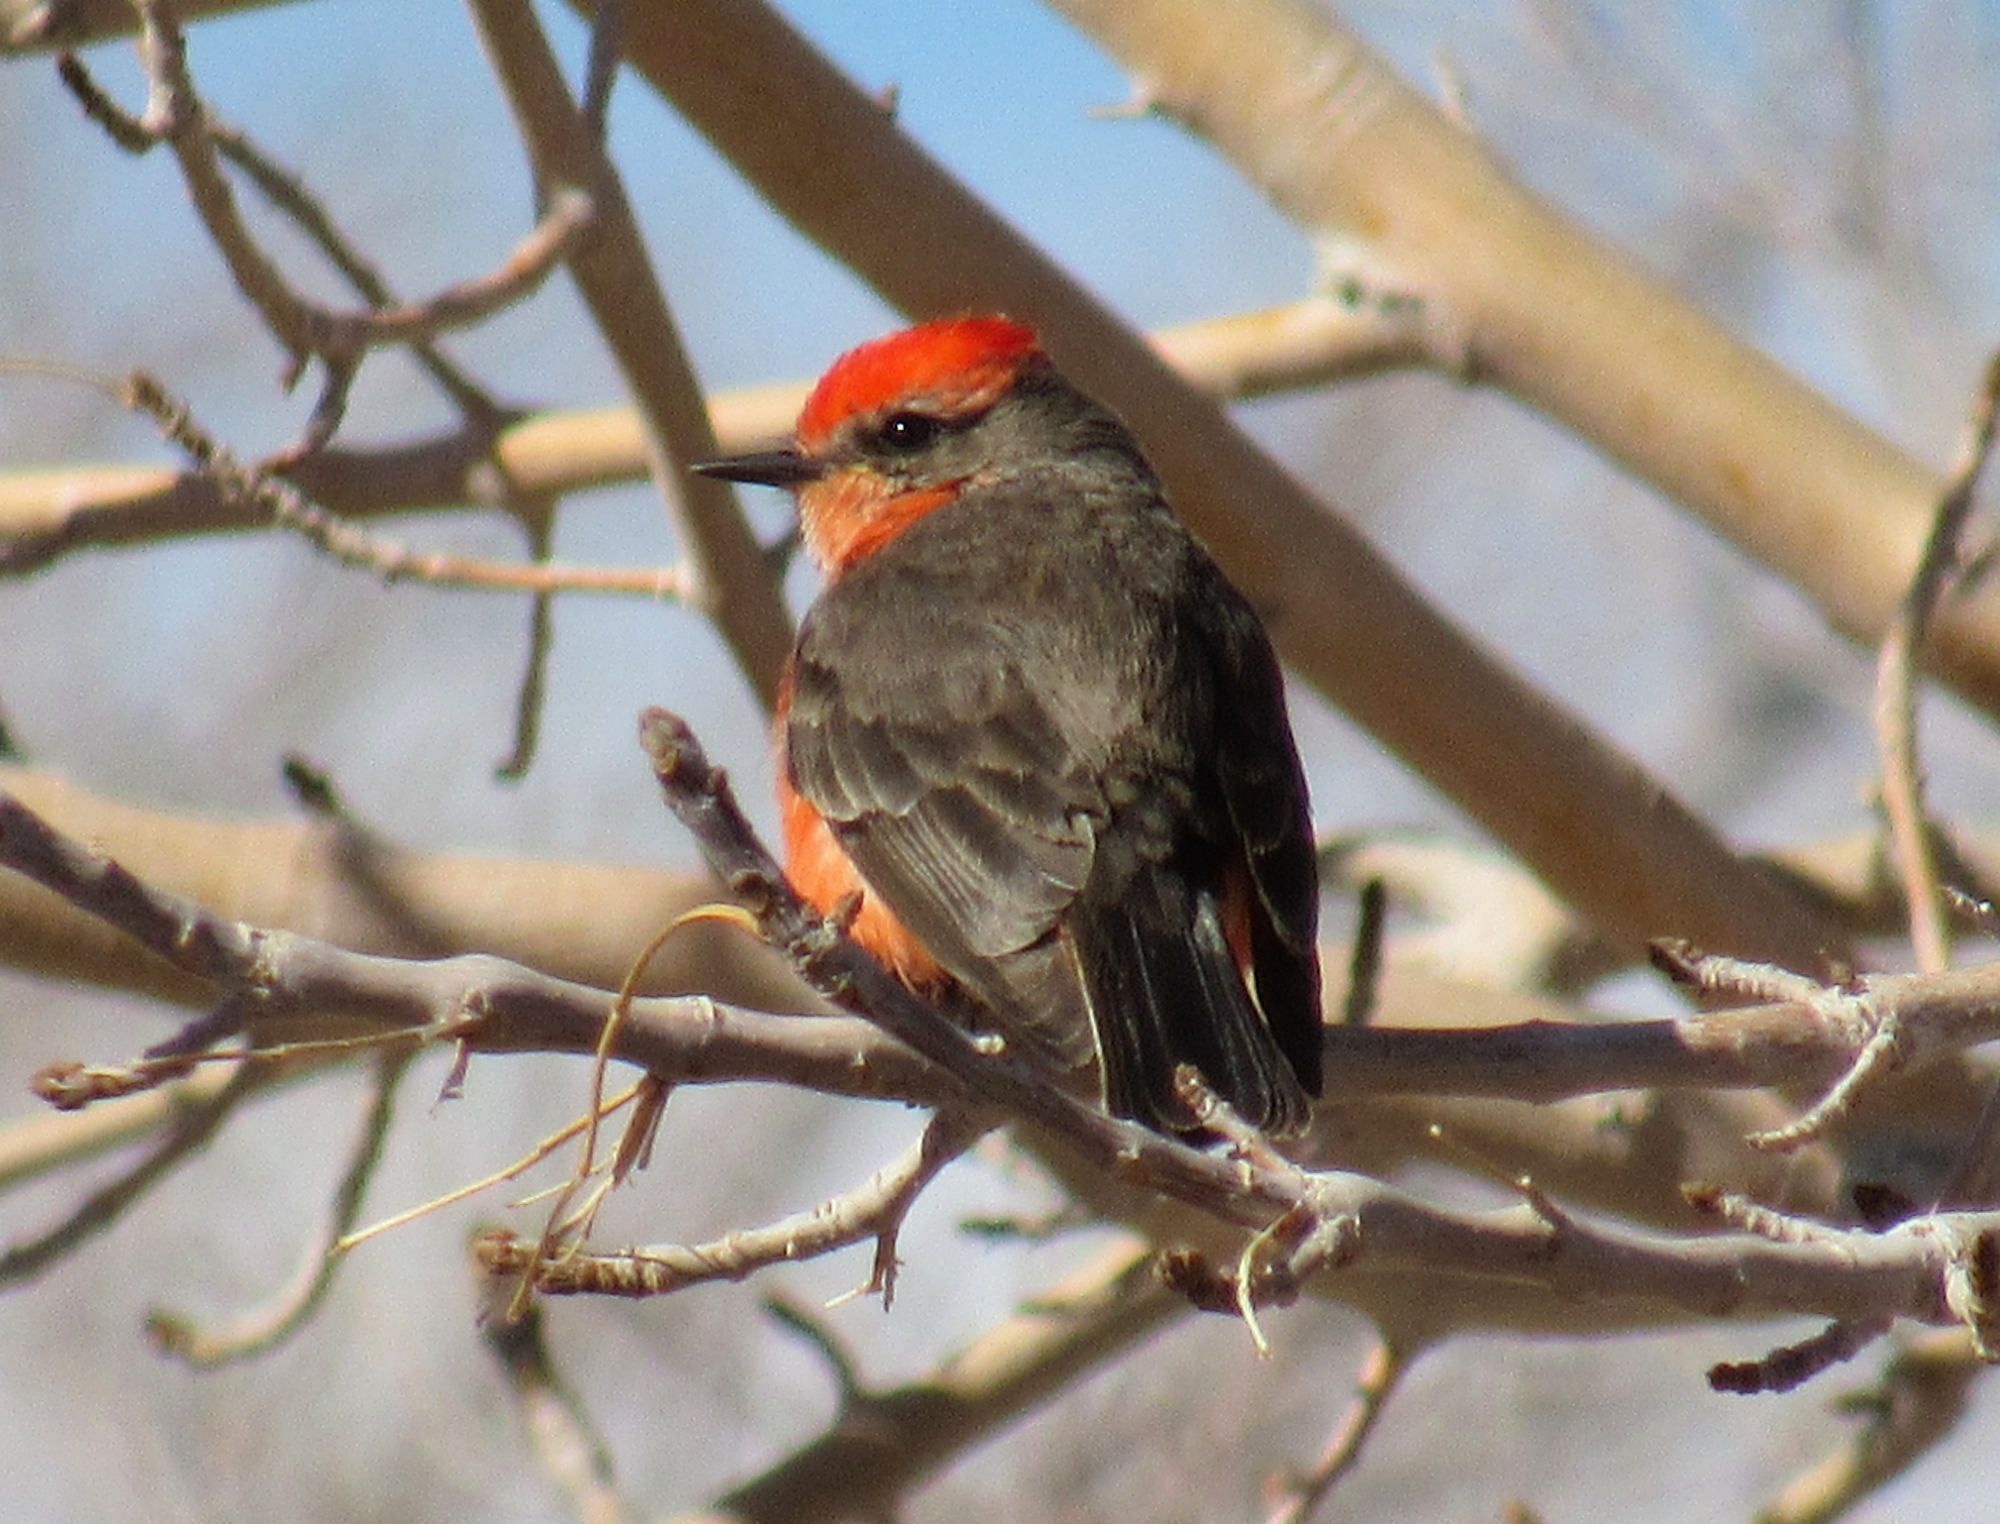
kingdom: Animalia
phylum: Chordata
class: Aves
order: Passeriformes
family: Tyrannidae
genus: Pyrocephalus
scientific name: Pyrocephalus rubinus
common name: Vermilion flycatcher
